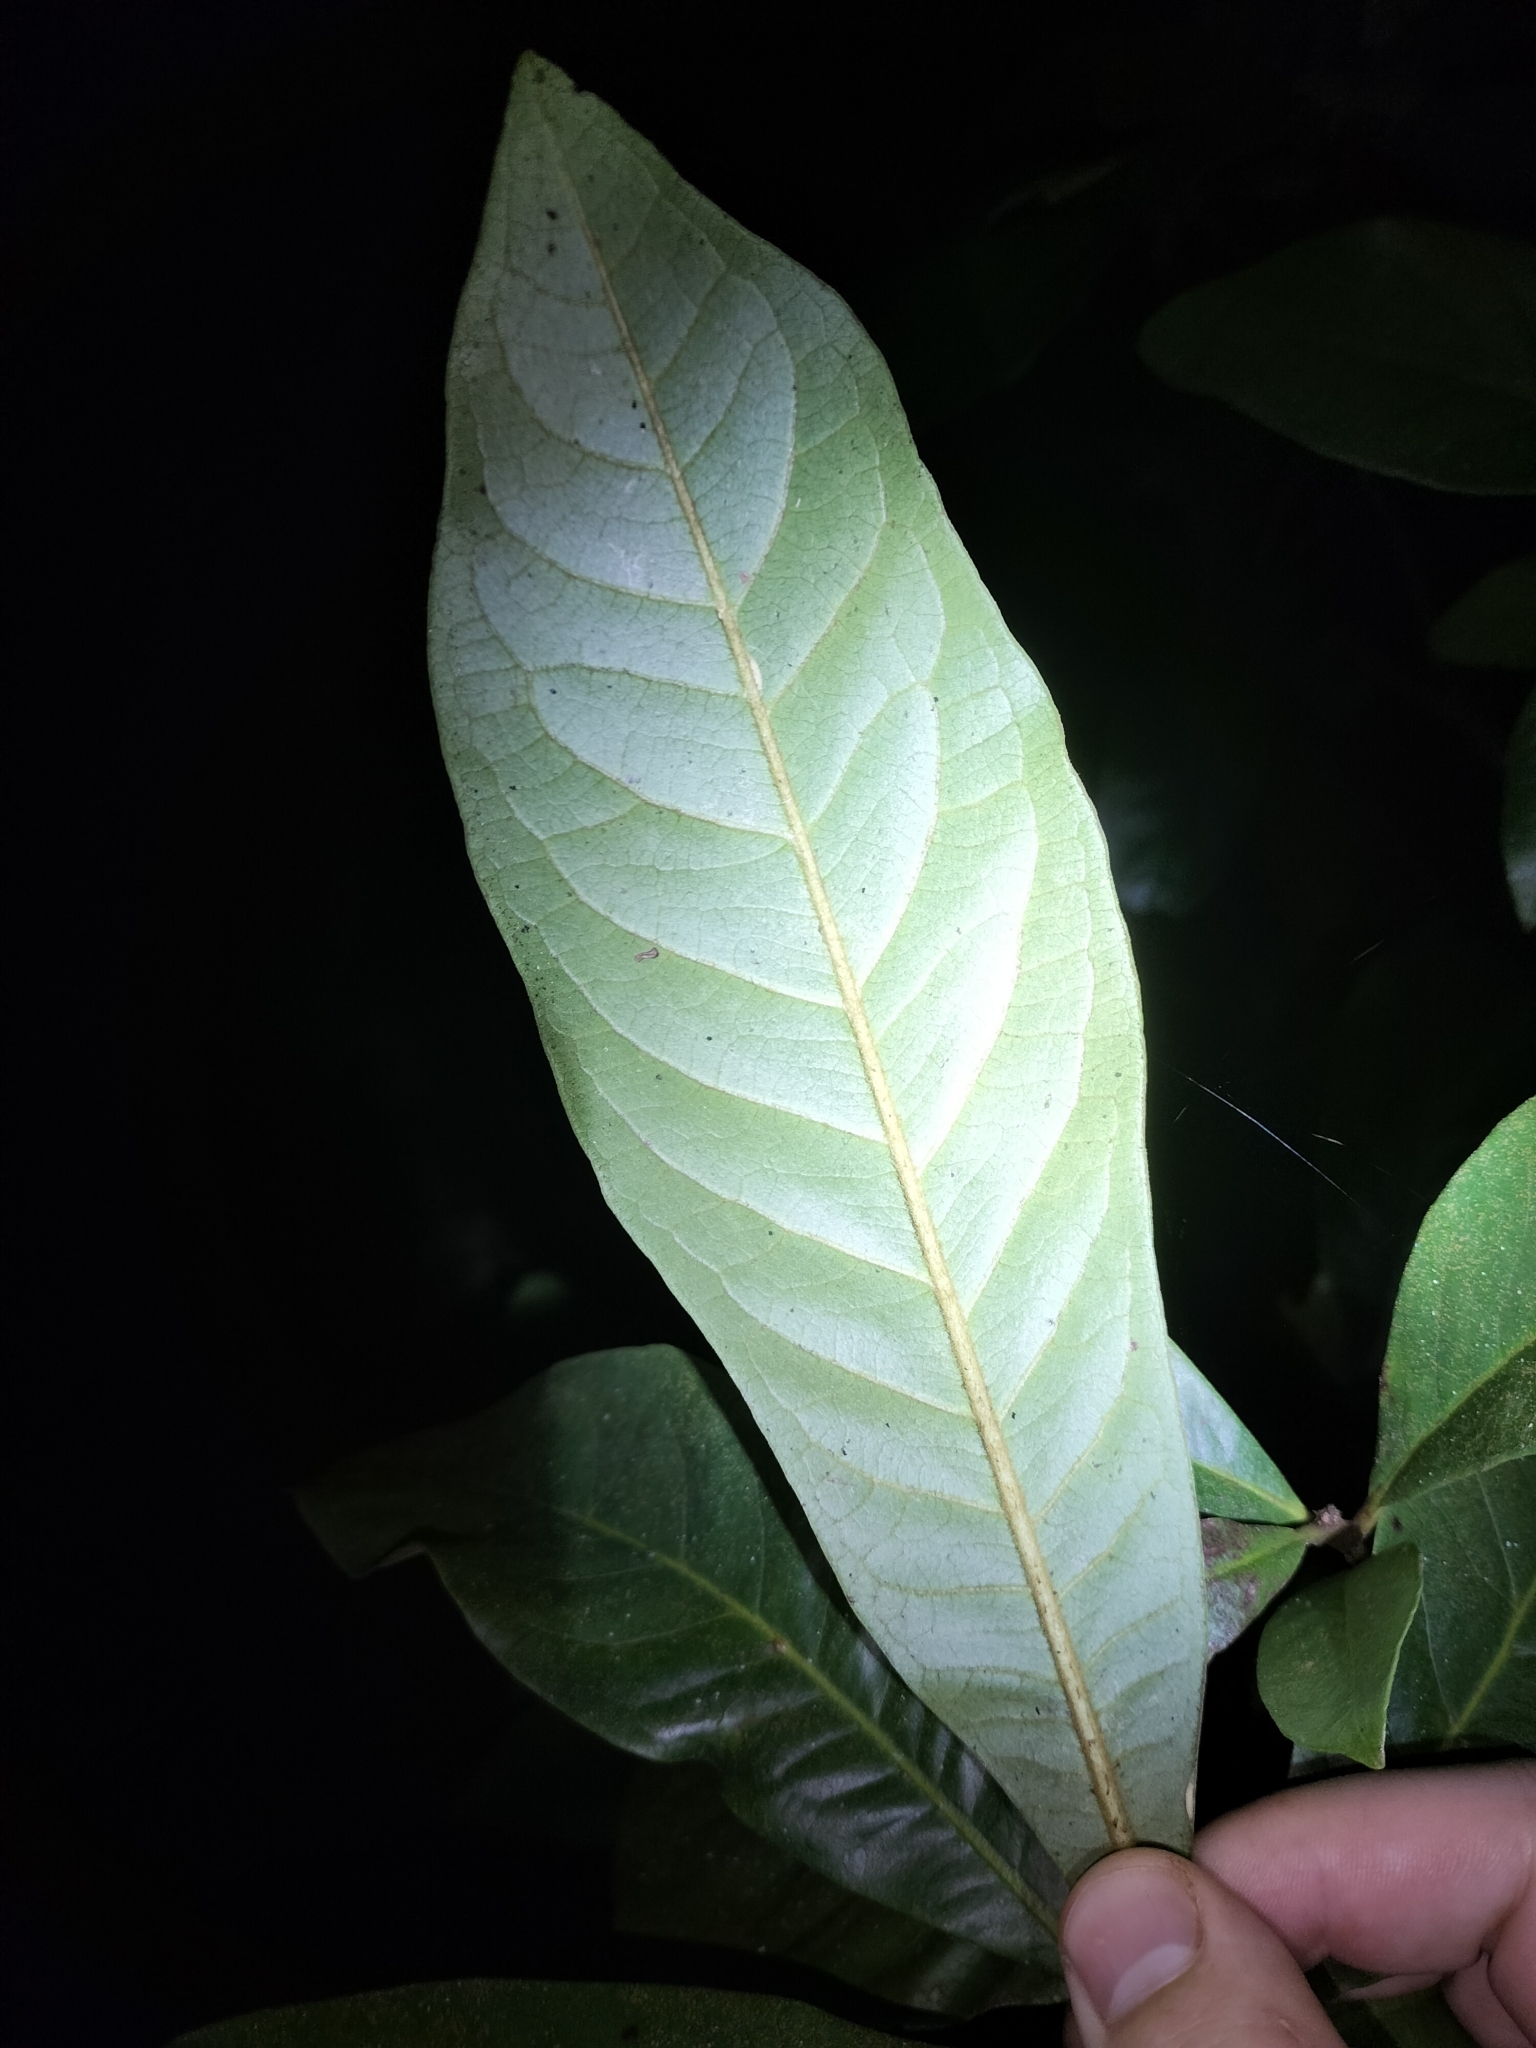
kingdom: Plantae
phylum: Tracheophyta
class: Magnoliopsida
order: Myrtales
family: Myrtaceae
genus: Xanthostemon
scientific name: Xanthostemon whitei
